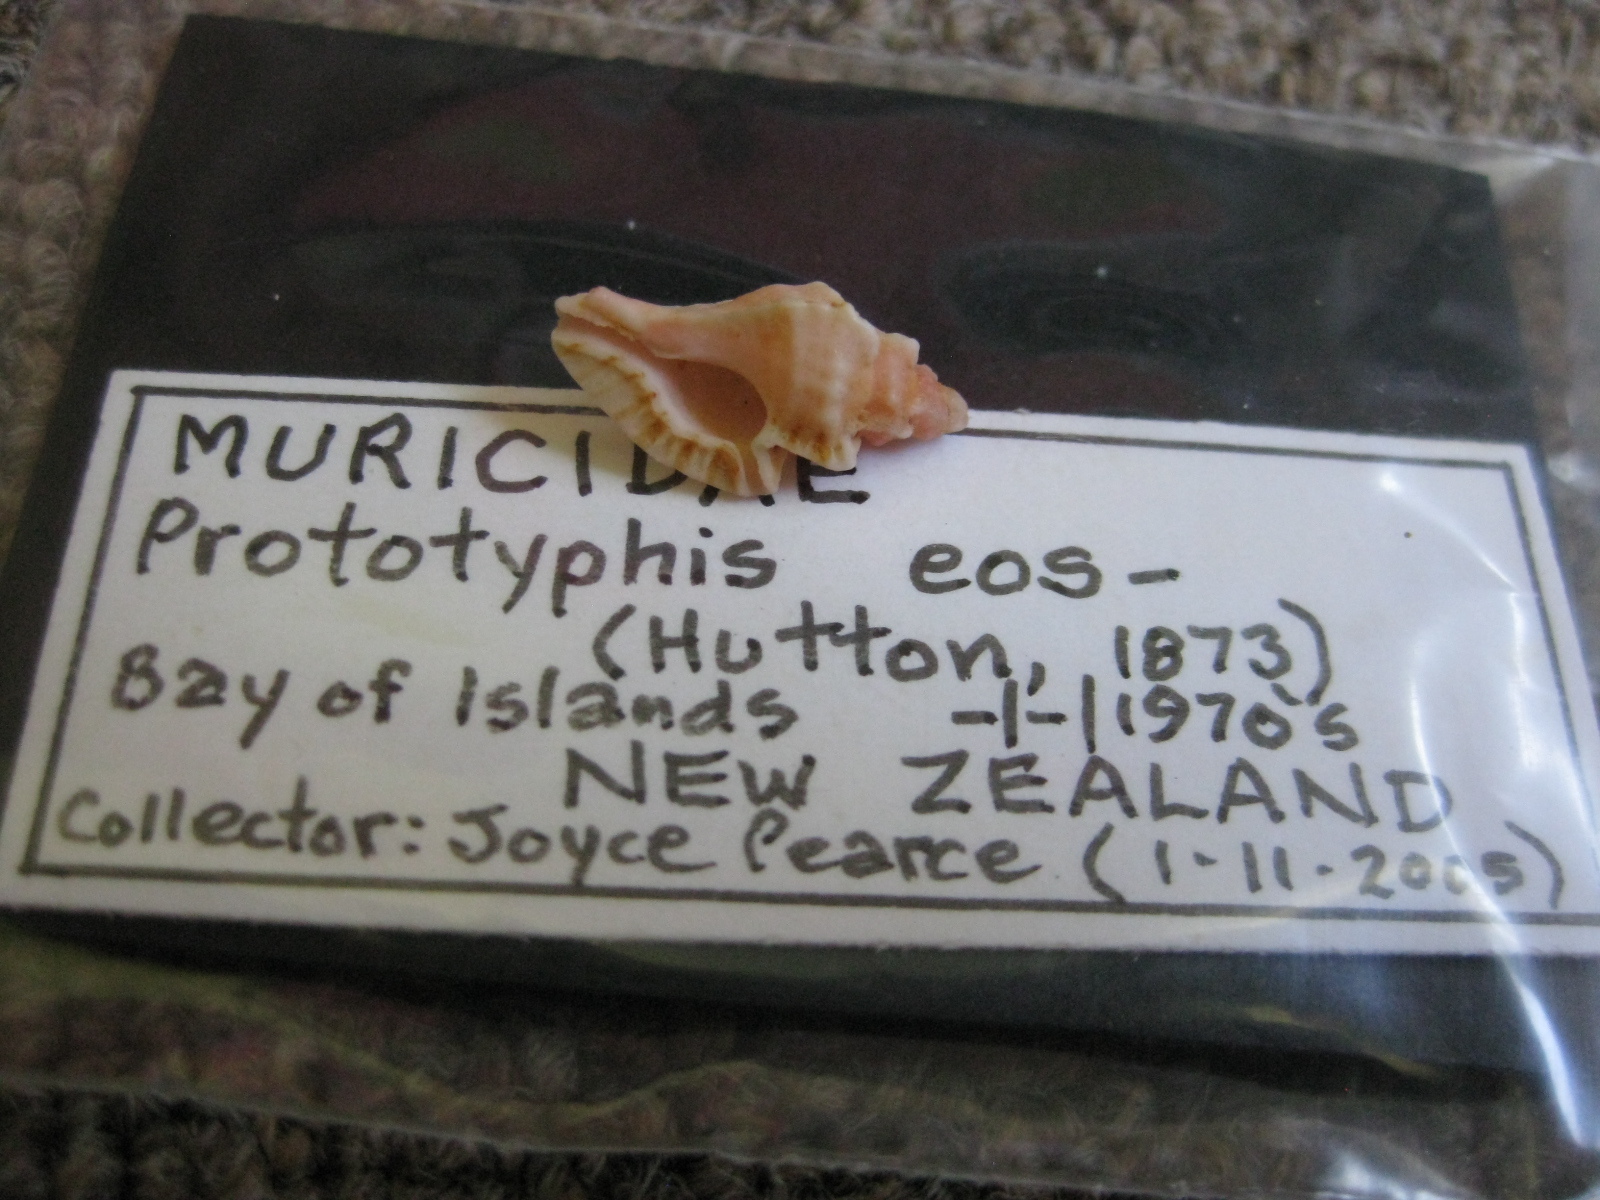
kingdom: Animalia
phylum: Mollusca
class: Gastropoda
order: Neogastropoda
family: Muricidae
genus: Prototyphis
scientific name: Prototyphis eos
